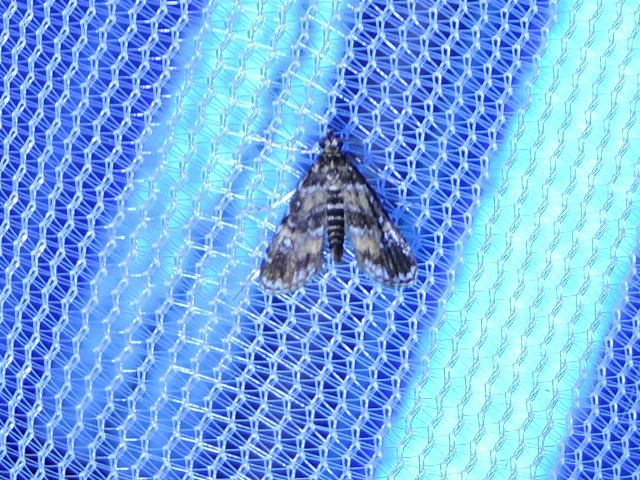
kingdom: Animalia
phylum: Arthropoda
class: Insecta
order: Lepidoptera
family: Crambidae
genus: Elophila
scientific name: Elophila obliteralis
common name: Waterlily leafcutter moth
